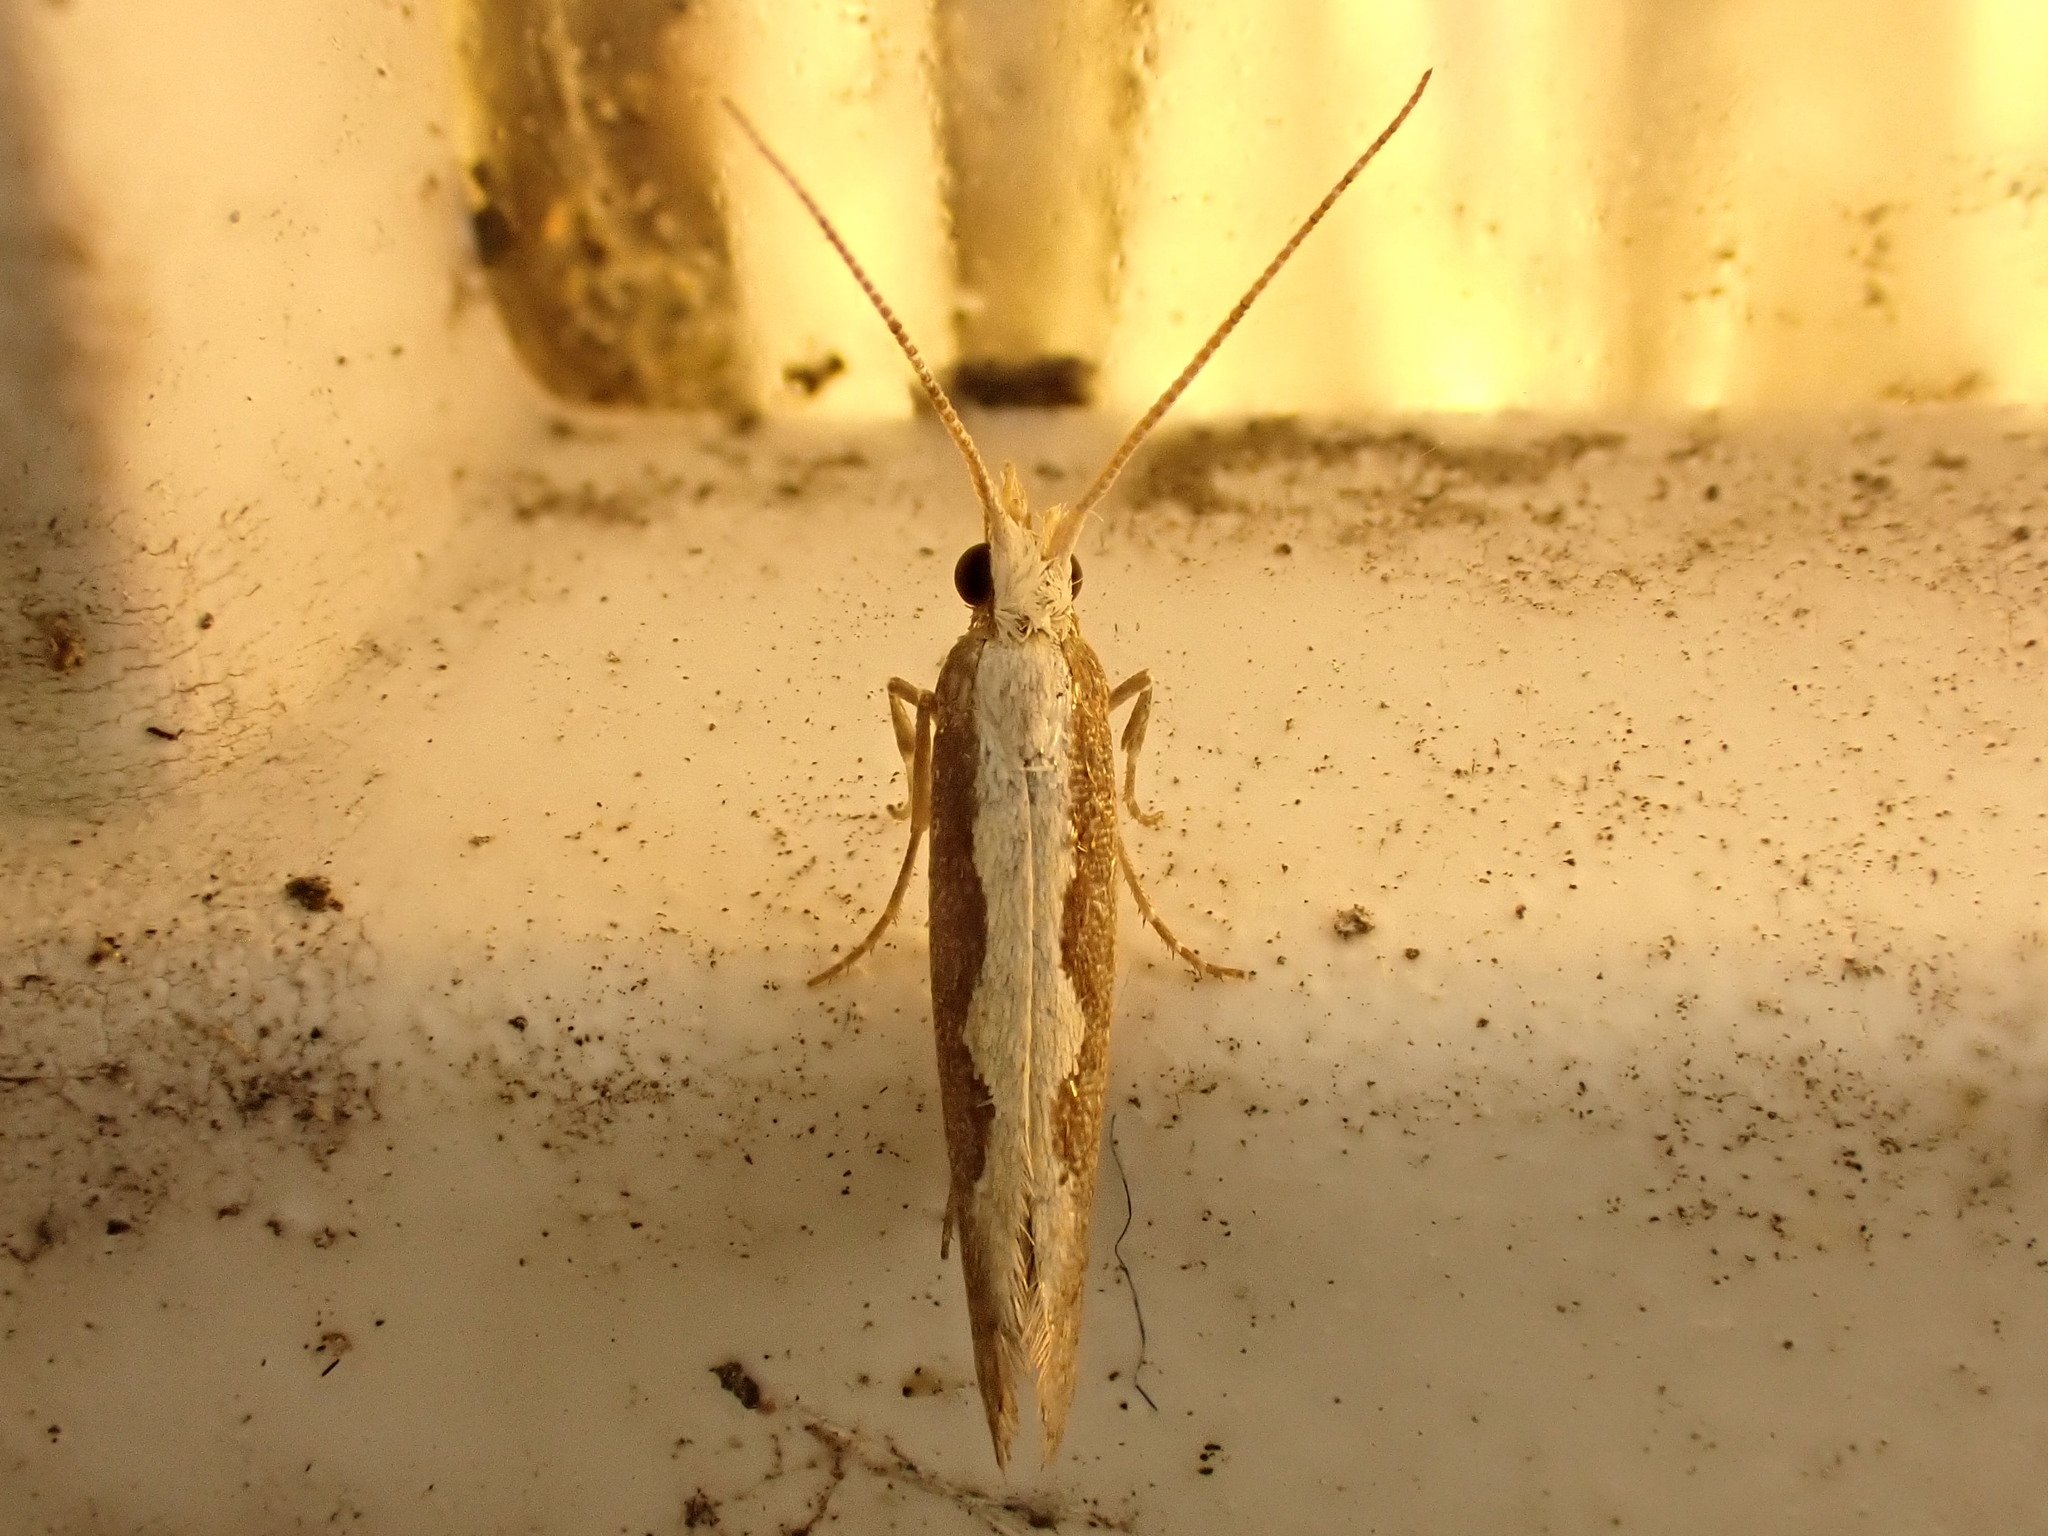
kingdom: Animalia
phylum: Arthropoda
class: Insecta
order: Lepidoptera
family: Plutellidae
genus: Plutella
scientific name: Plutella xylostella
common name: Diamond-back moth
